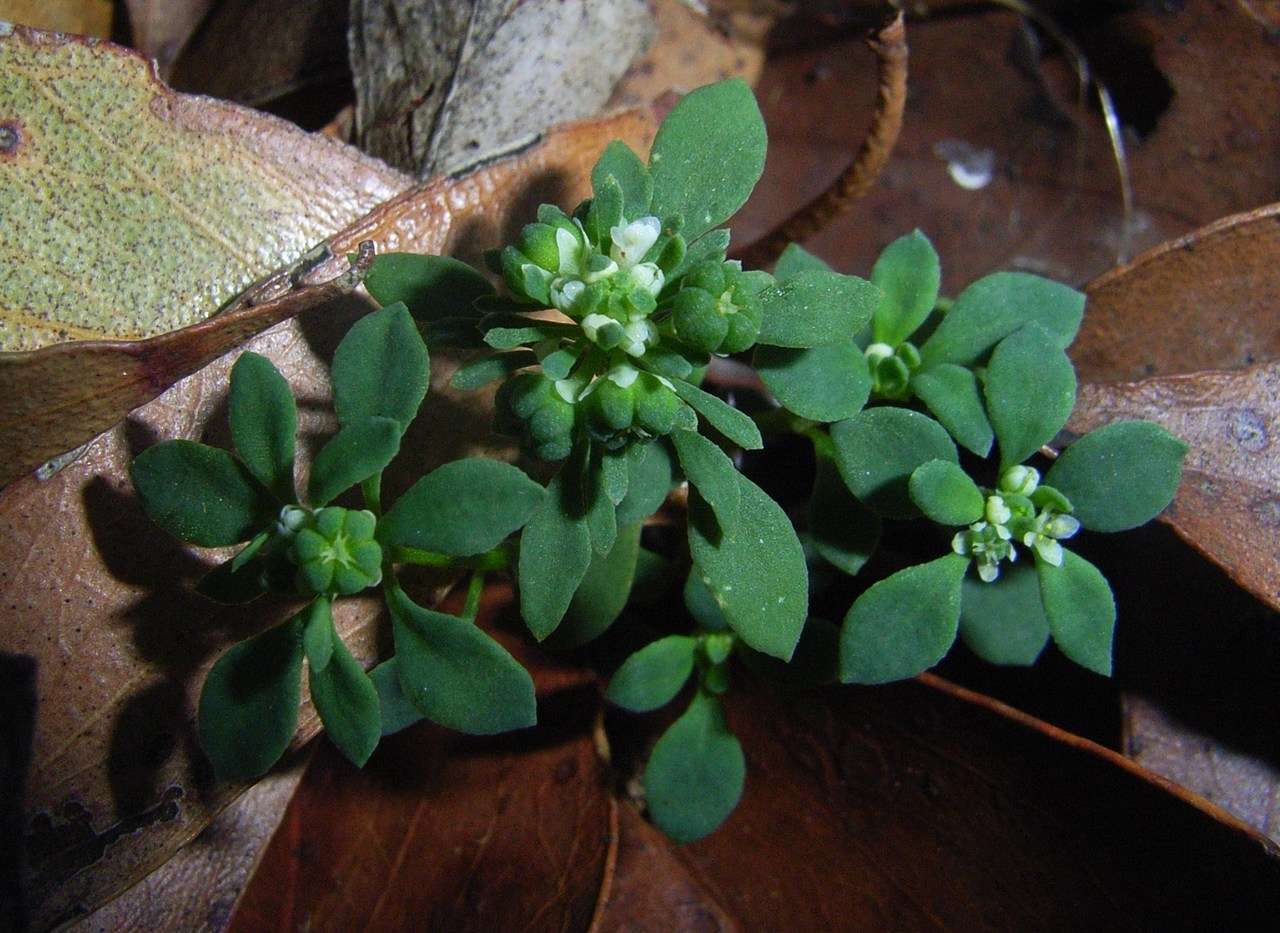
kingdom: Plantae
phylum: Tracheophyta
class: Magnoliopsida
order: Malpighiales
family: Phyllanthaceae
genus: Poranthera
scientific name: Poranthera microphylla
